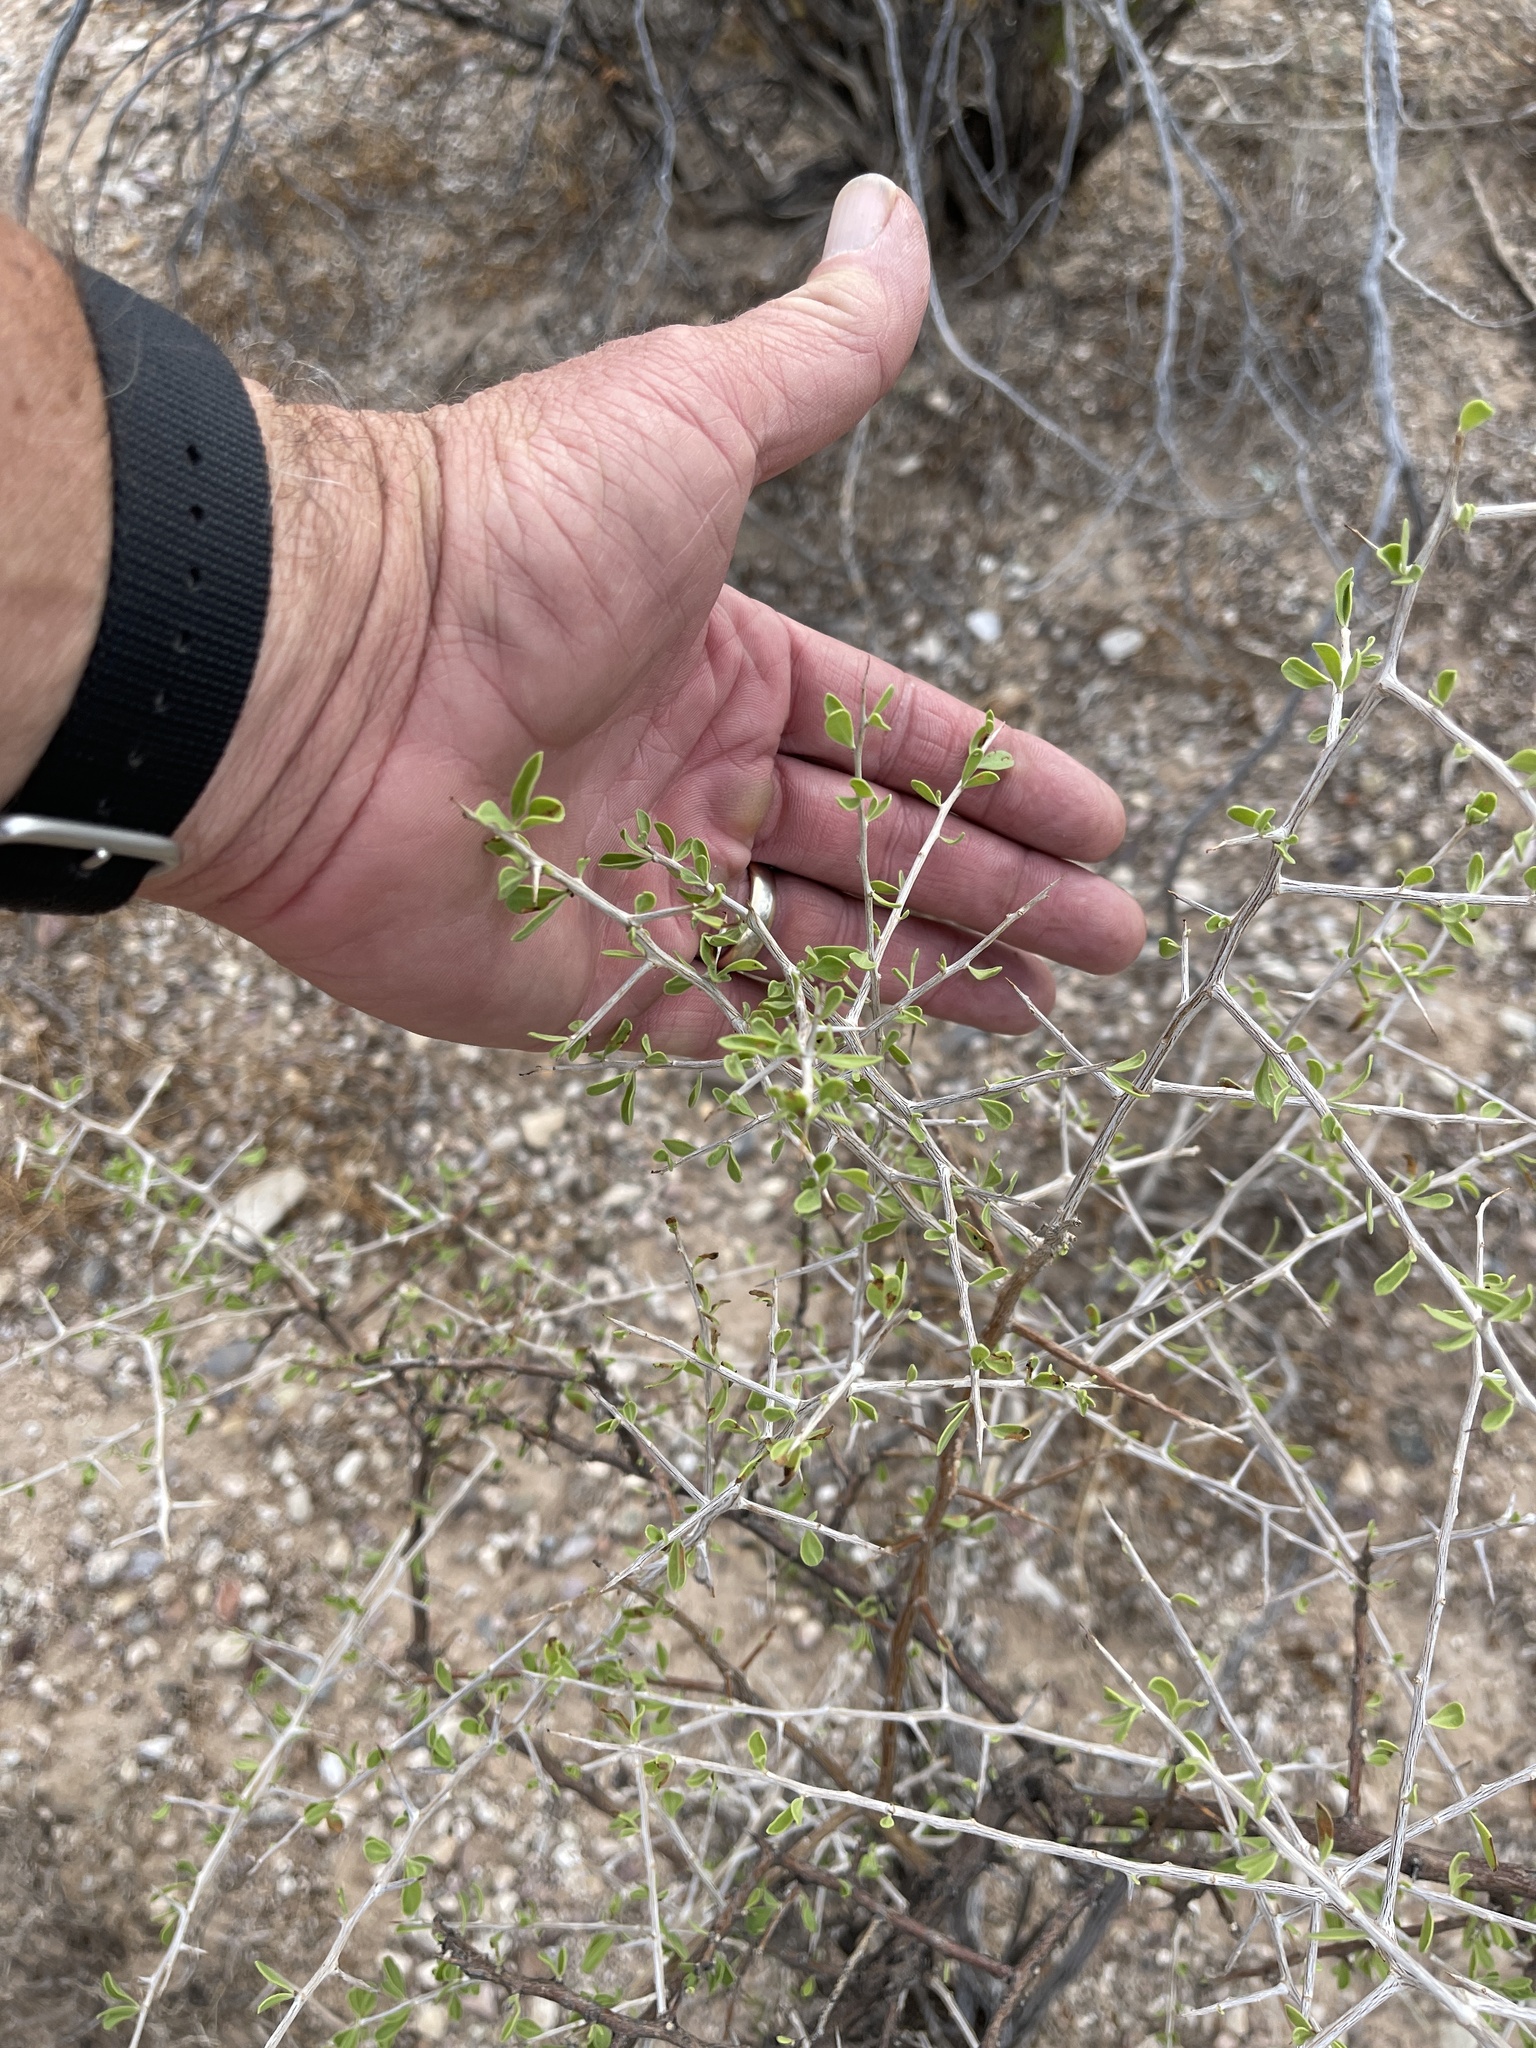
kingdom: Plantae
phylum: Tracheophyta
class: Magnoliopsida
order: Solanales
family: Solanaceae
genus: Lycium
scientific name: Lycium berlandieri
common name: Berlandier wolfberry
